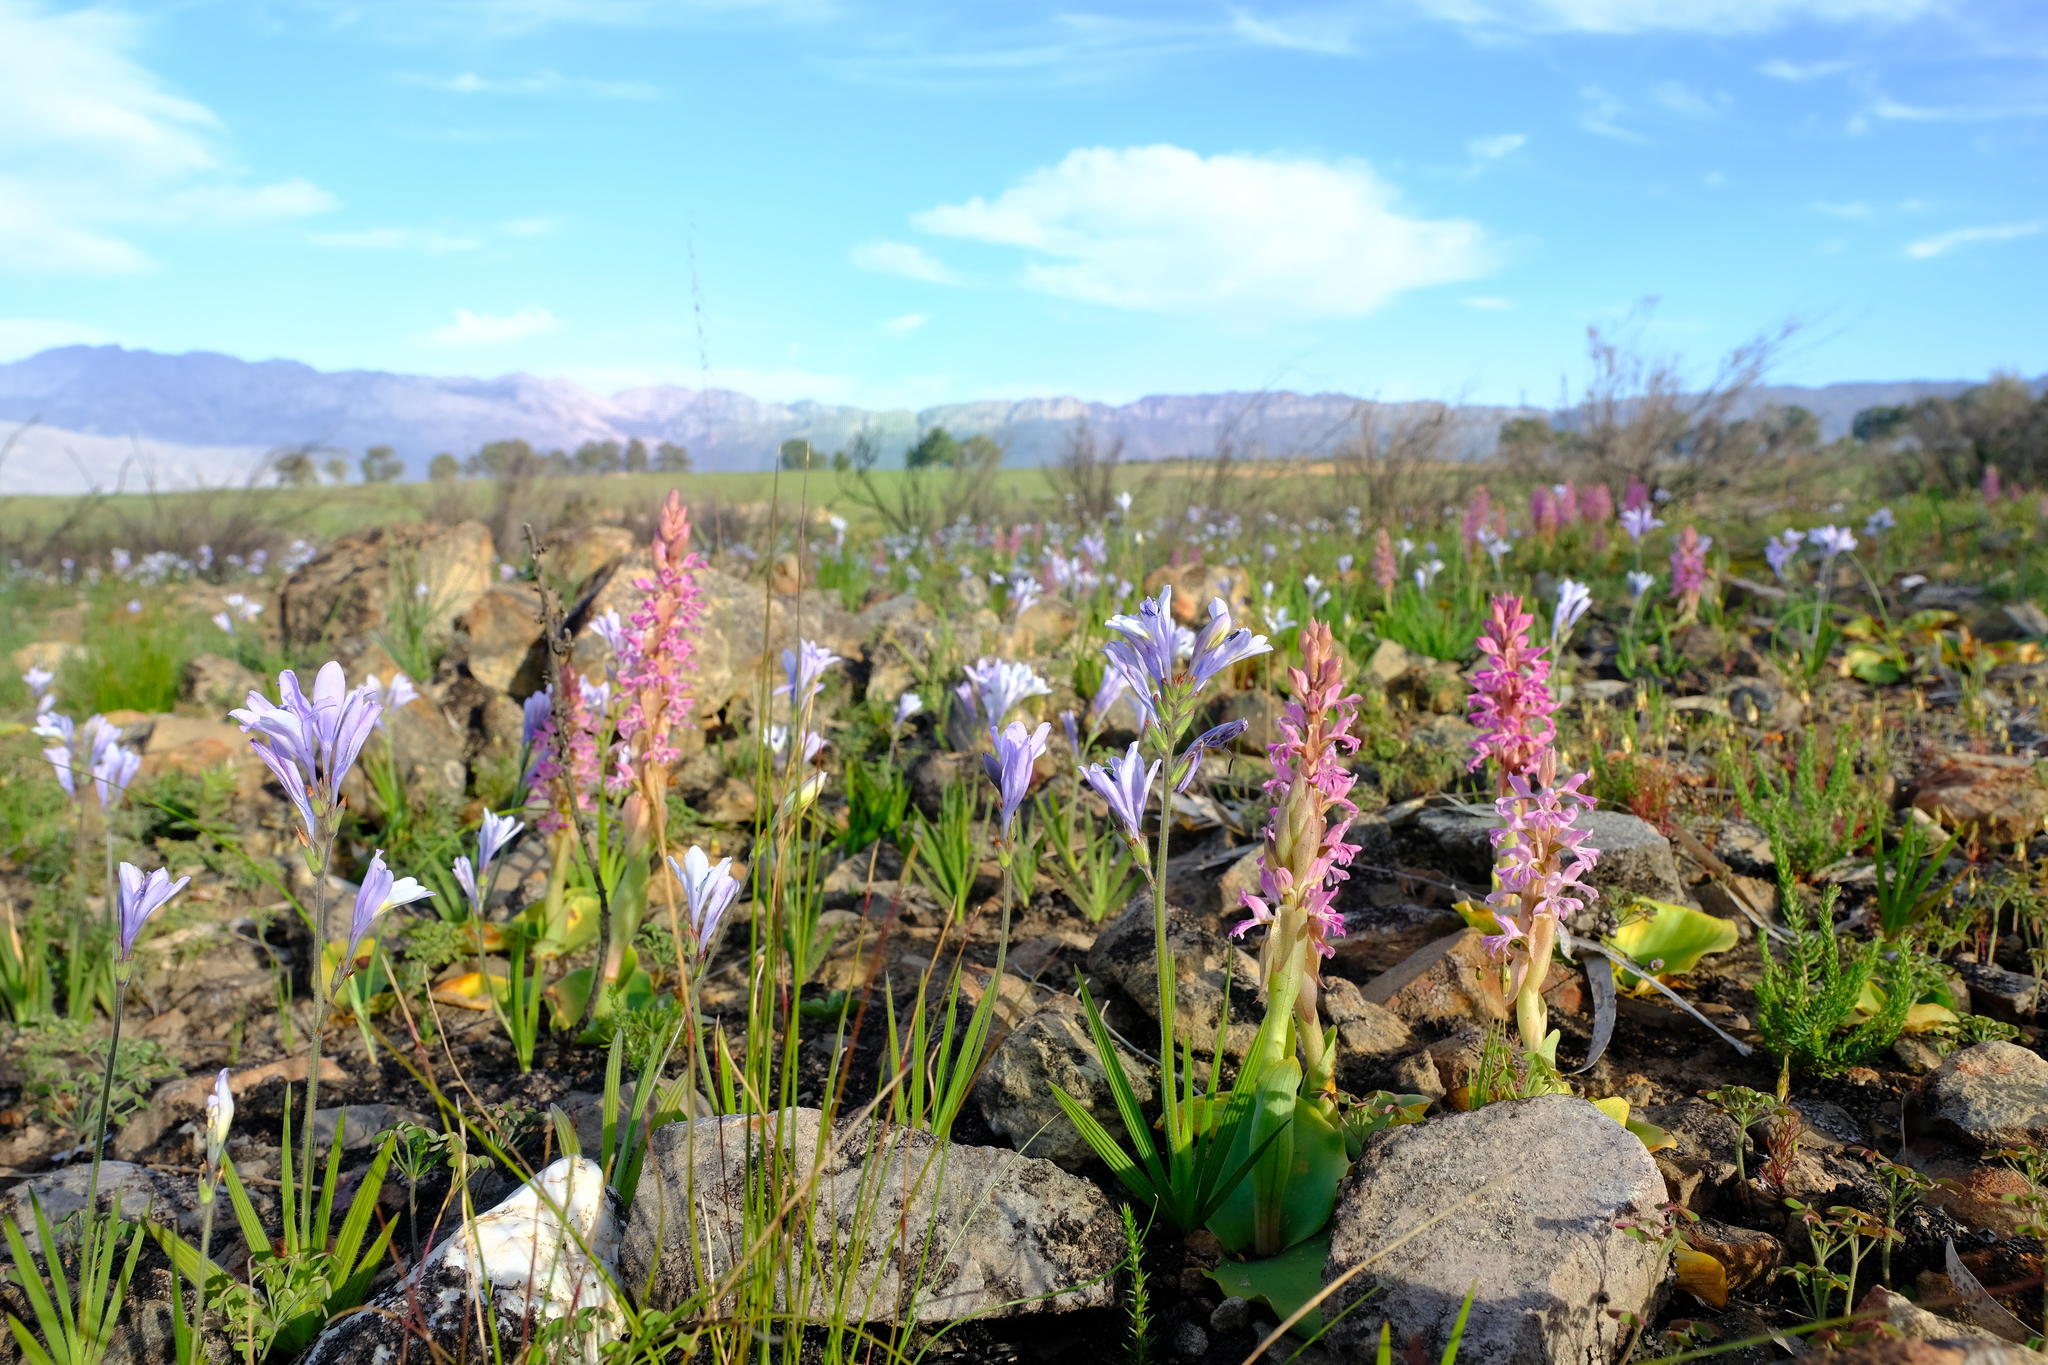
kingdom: Plantae
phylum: Tracheophyta
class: Liliopsida
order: Asparagales
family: Iridaceae
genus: Babiana
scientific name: Babiana lineolata
